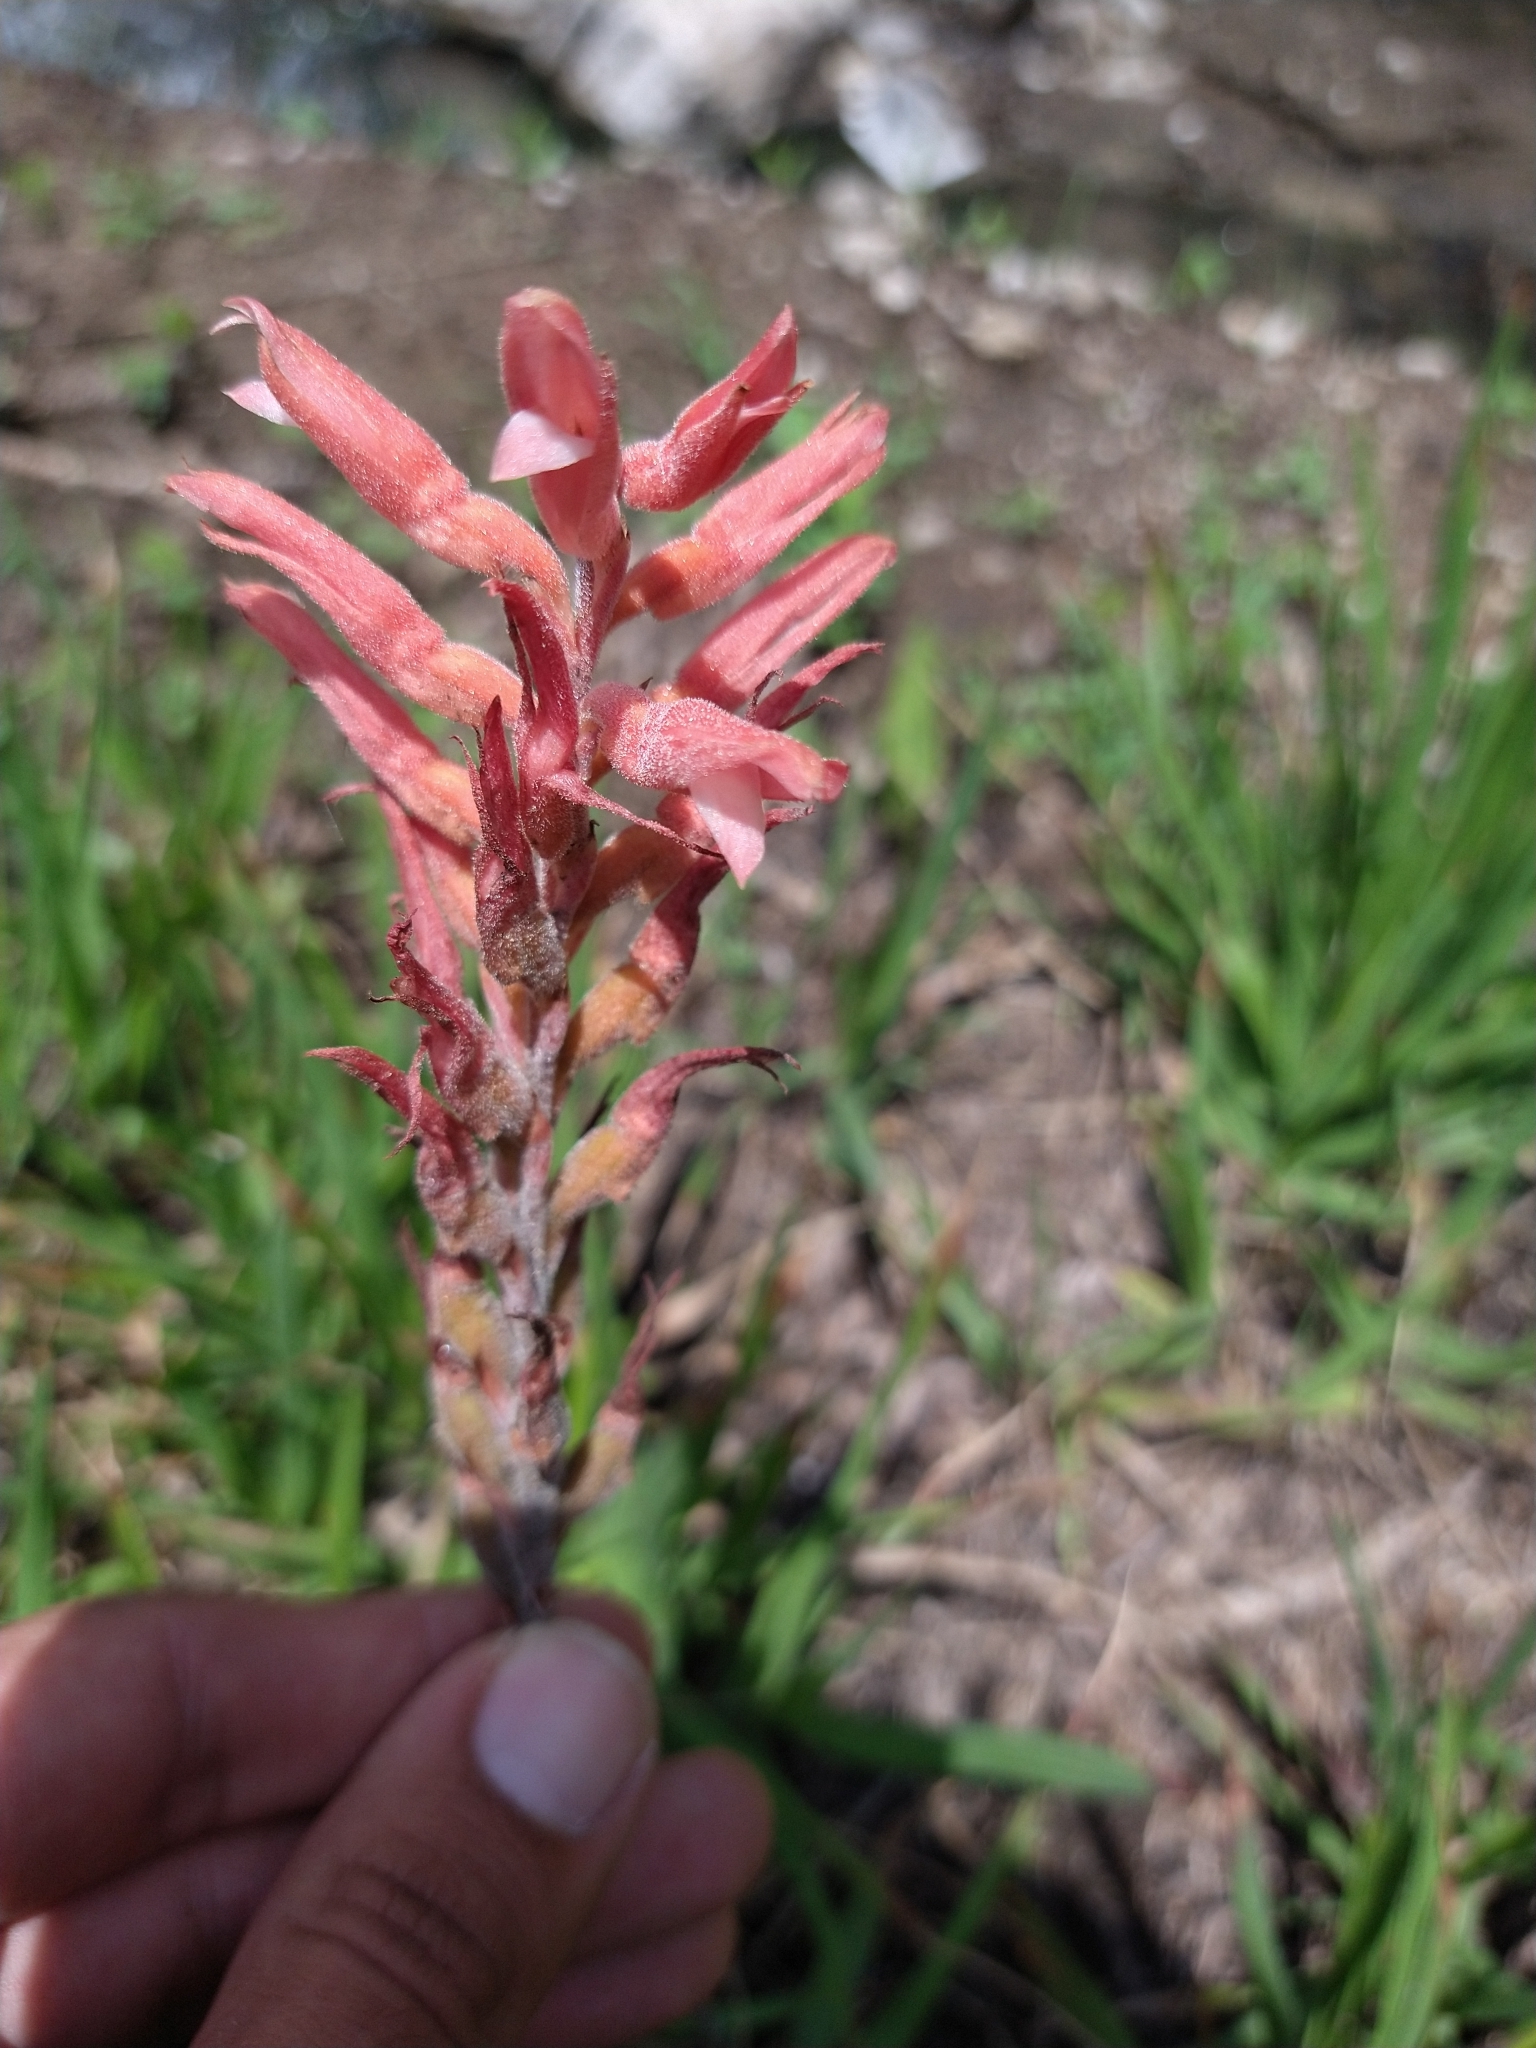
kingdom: Plantae
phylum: Tracheophyta
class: Liliopsida
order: Asparagales
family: Orchidaceae
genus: Sacoila
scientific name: Sacoila lanceolata
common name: Leafless beaked ladiestresses
